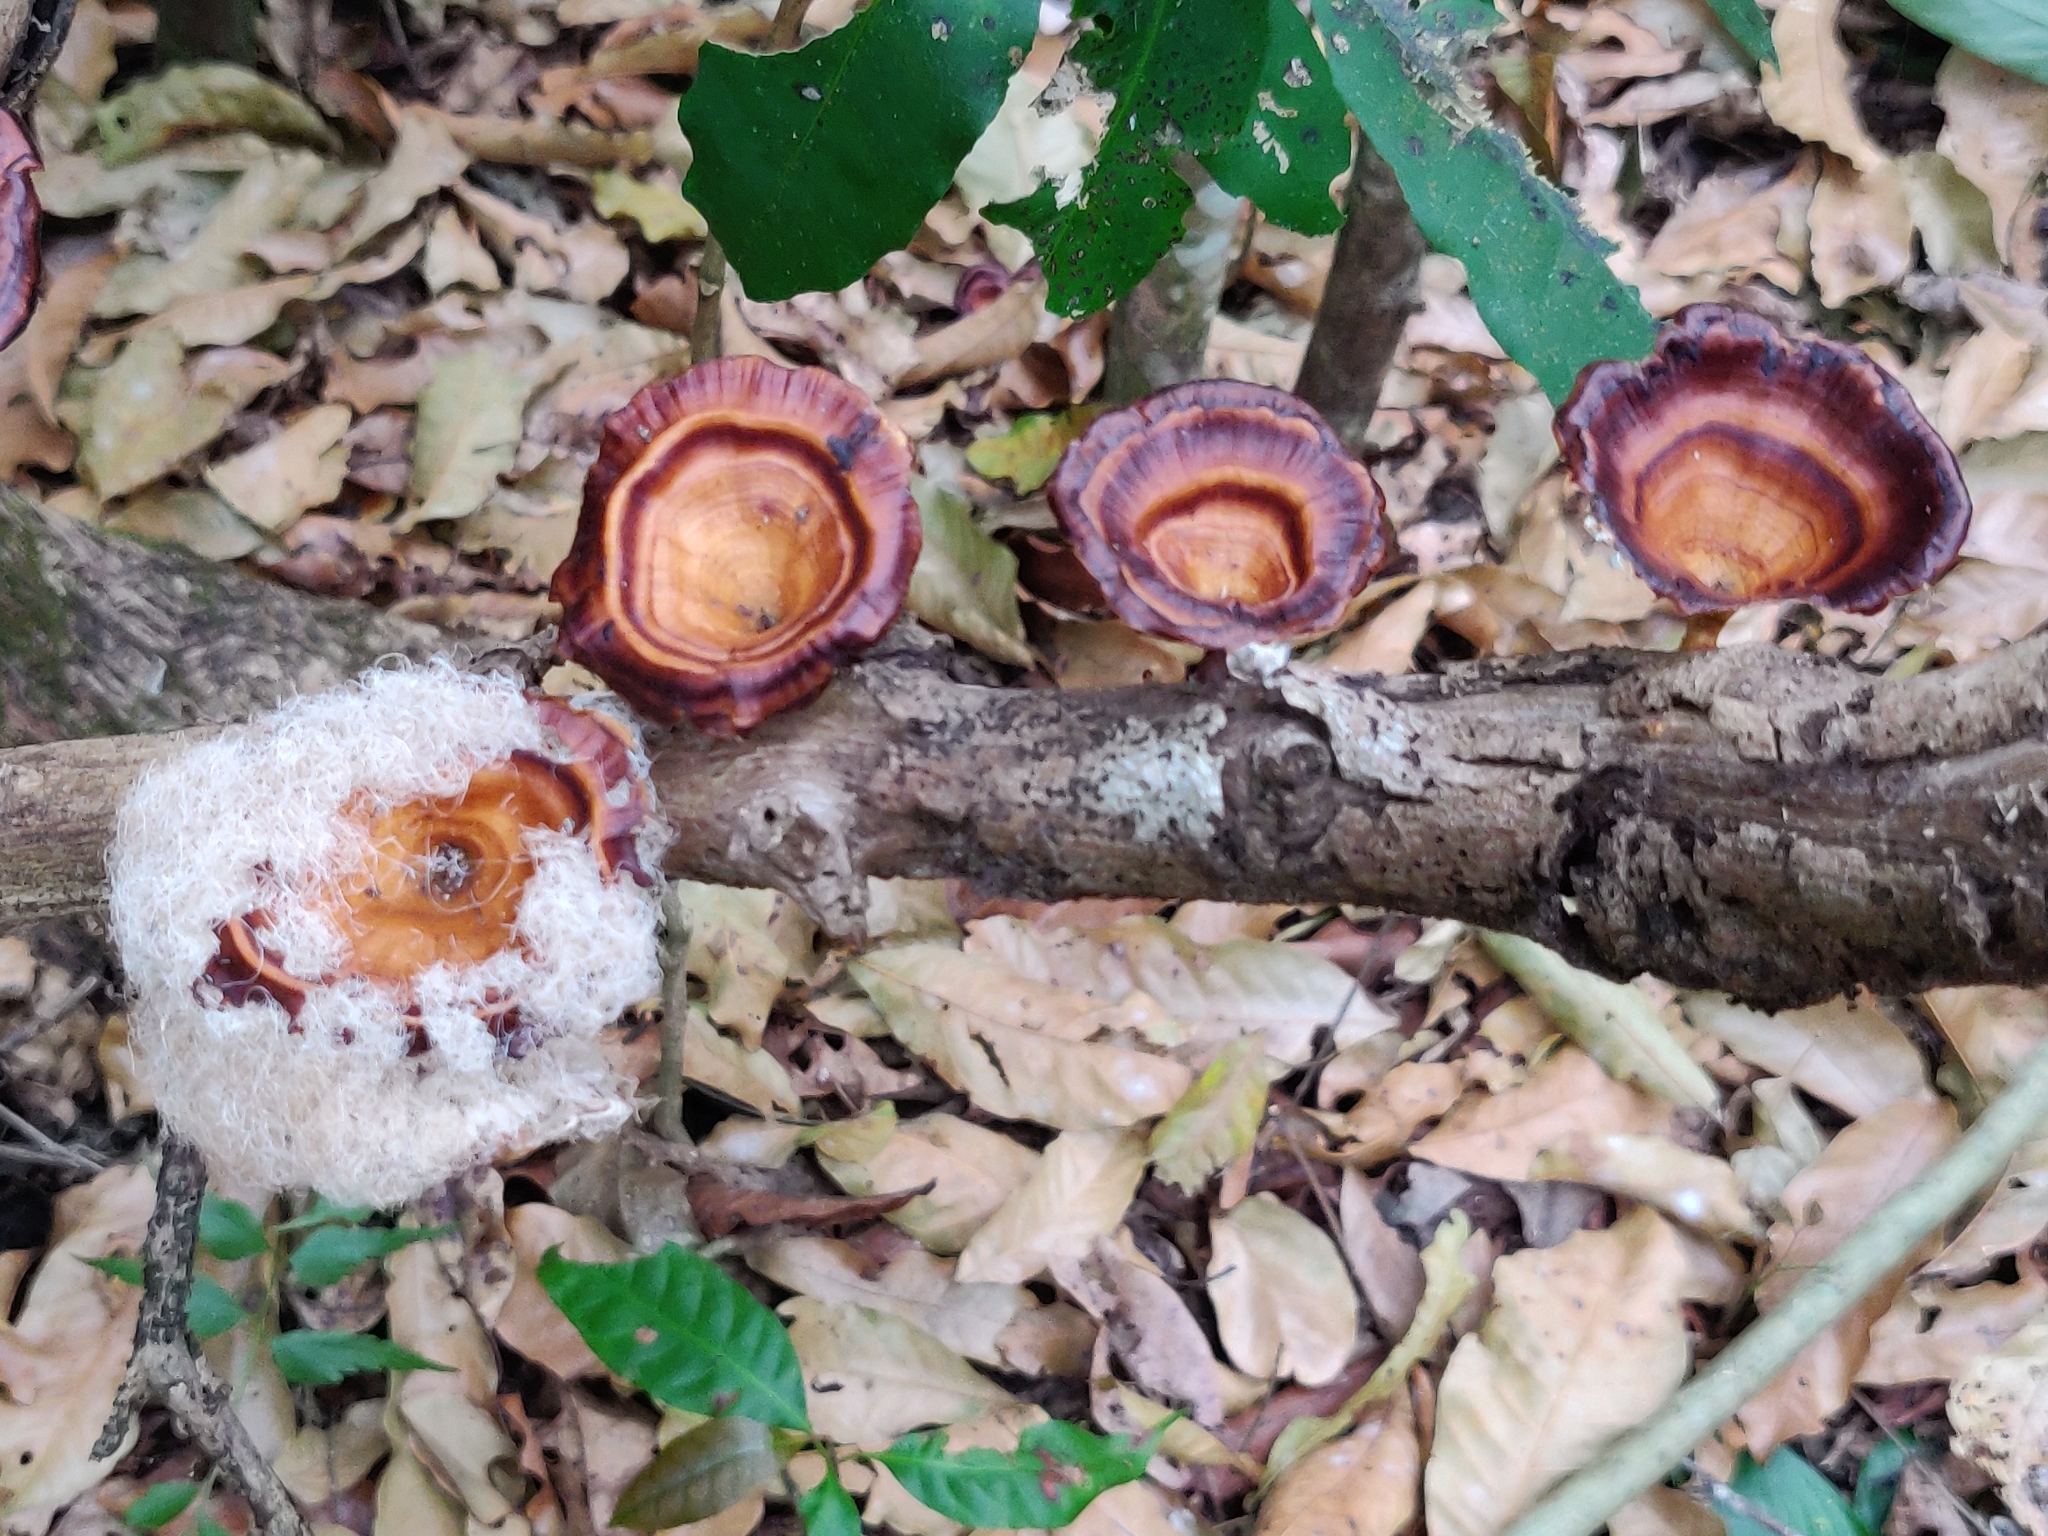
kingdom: Fungi
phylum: Basidiomycota
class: Agaricomycetes
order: Polyporales
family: Polyporaceae
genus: Microporus
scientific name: Microporus xanthopus
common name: Yellow-stemmed micropore
